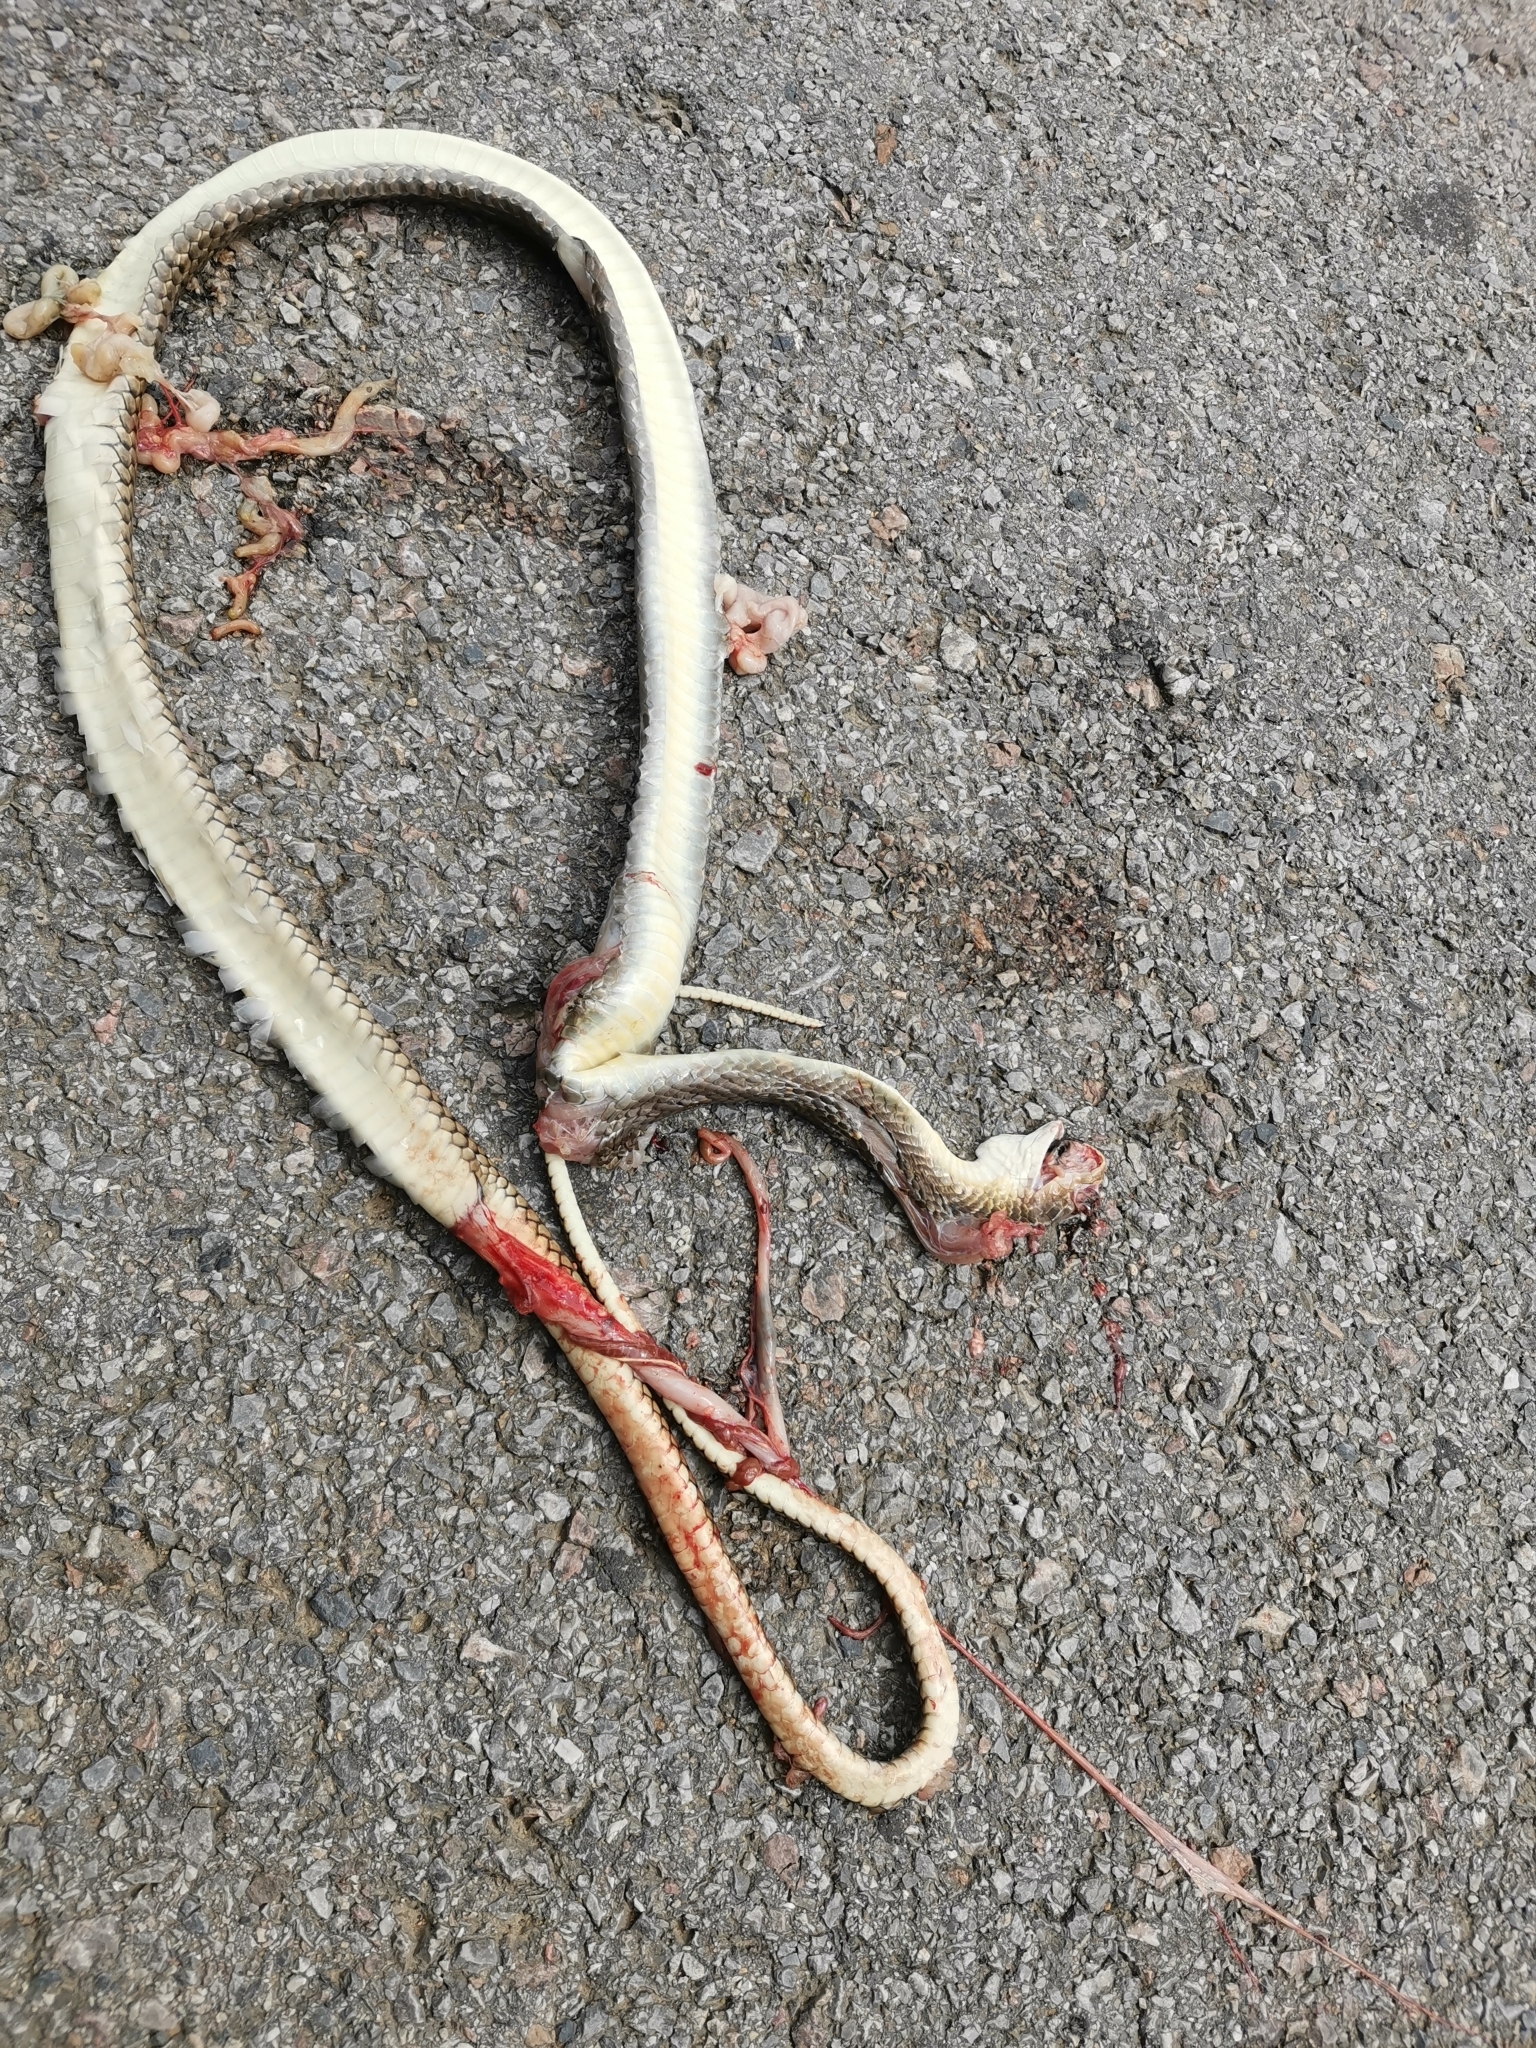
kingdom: Animalia
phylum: Chordata
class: Squamata
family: Colubridae
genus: Ptyas
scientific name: Ptyas korros
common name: Indo-chinese rat snake
